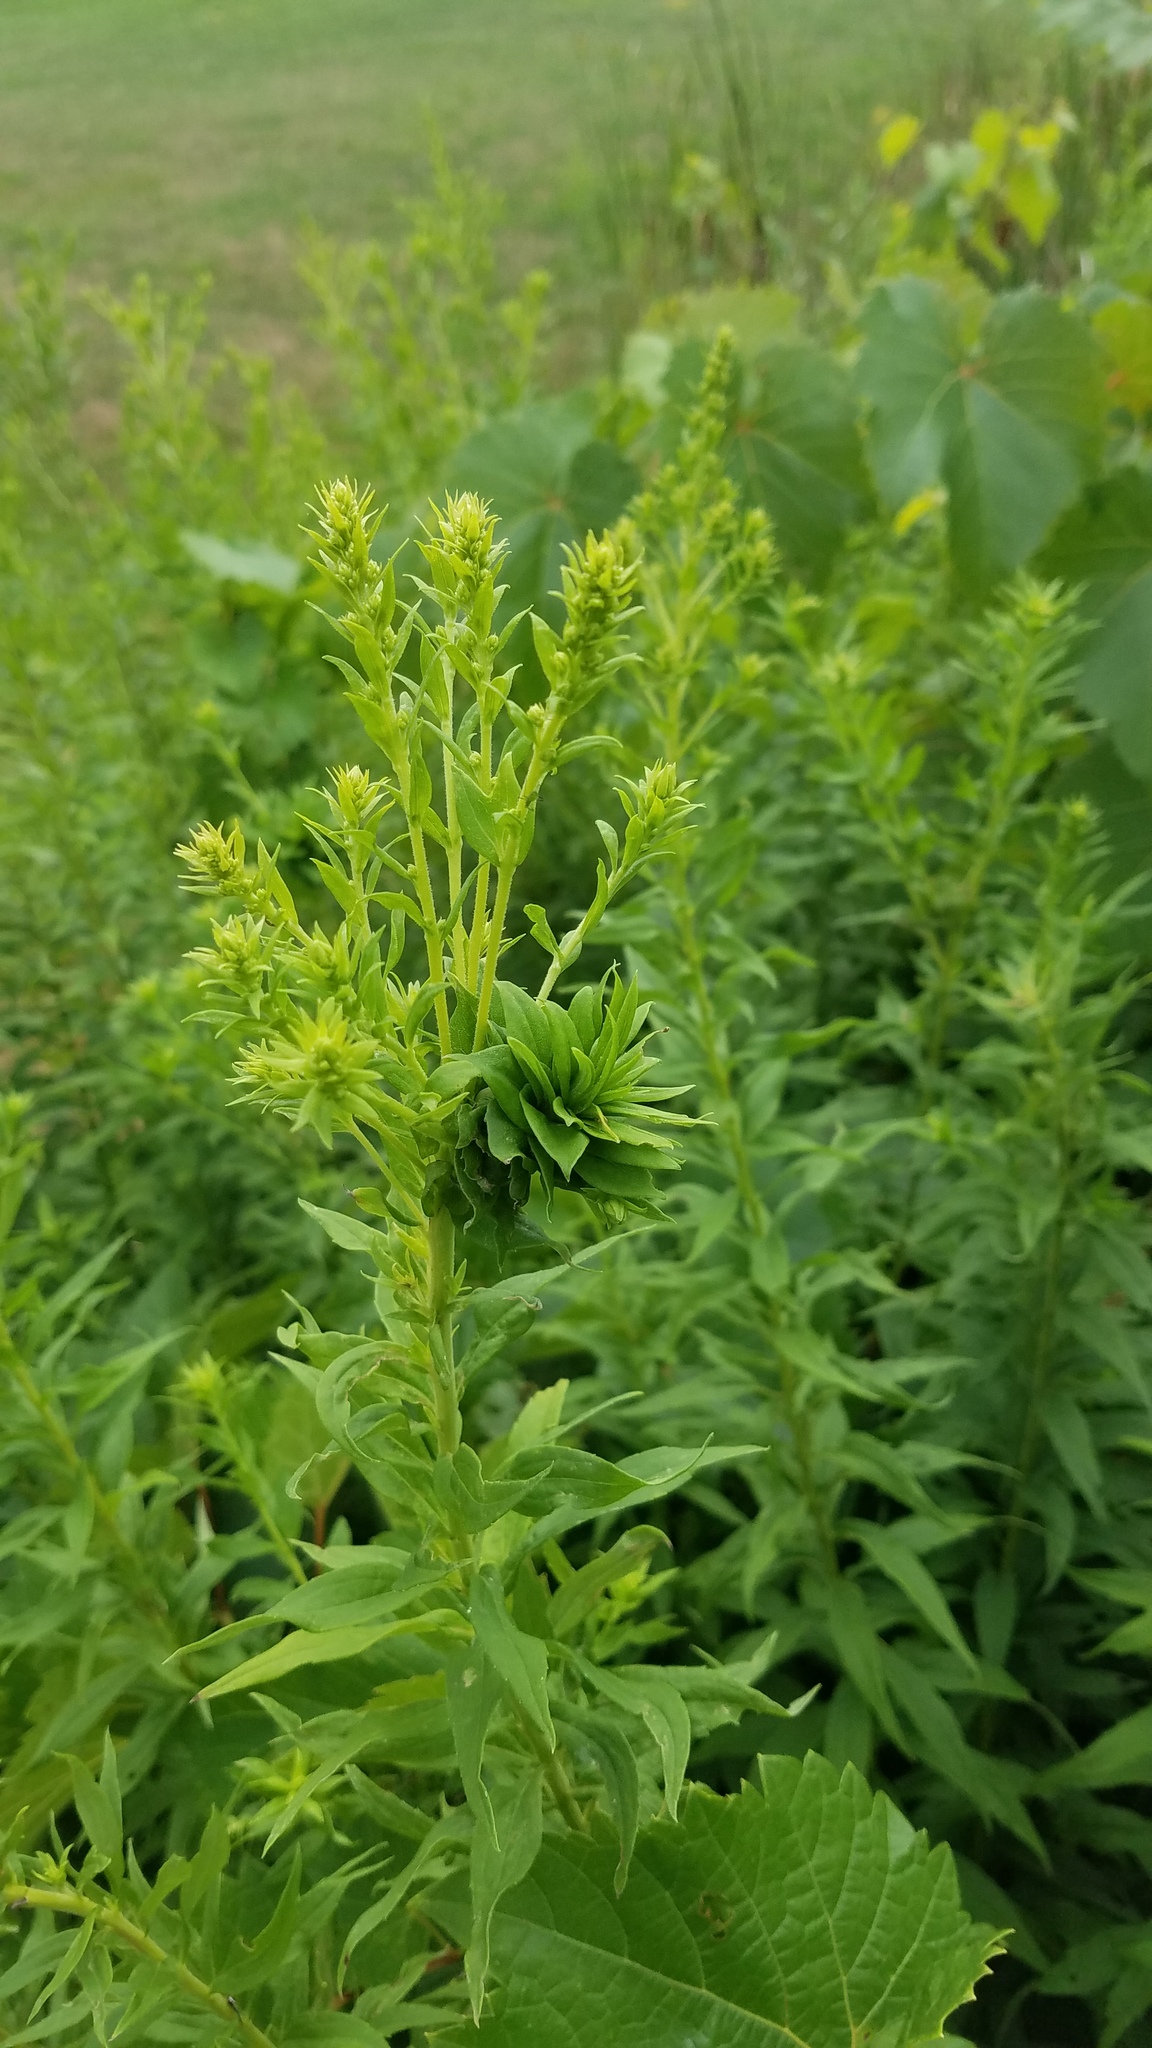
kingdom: Plantae
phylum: Tracheophyta
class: Magnoliopsida
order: Asterales
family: Asteraceae
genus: Solidago
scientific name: Solidago altissima
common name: Late goldenrod
